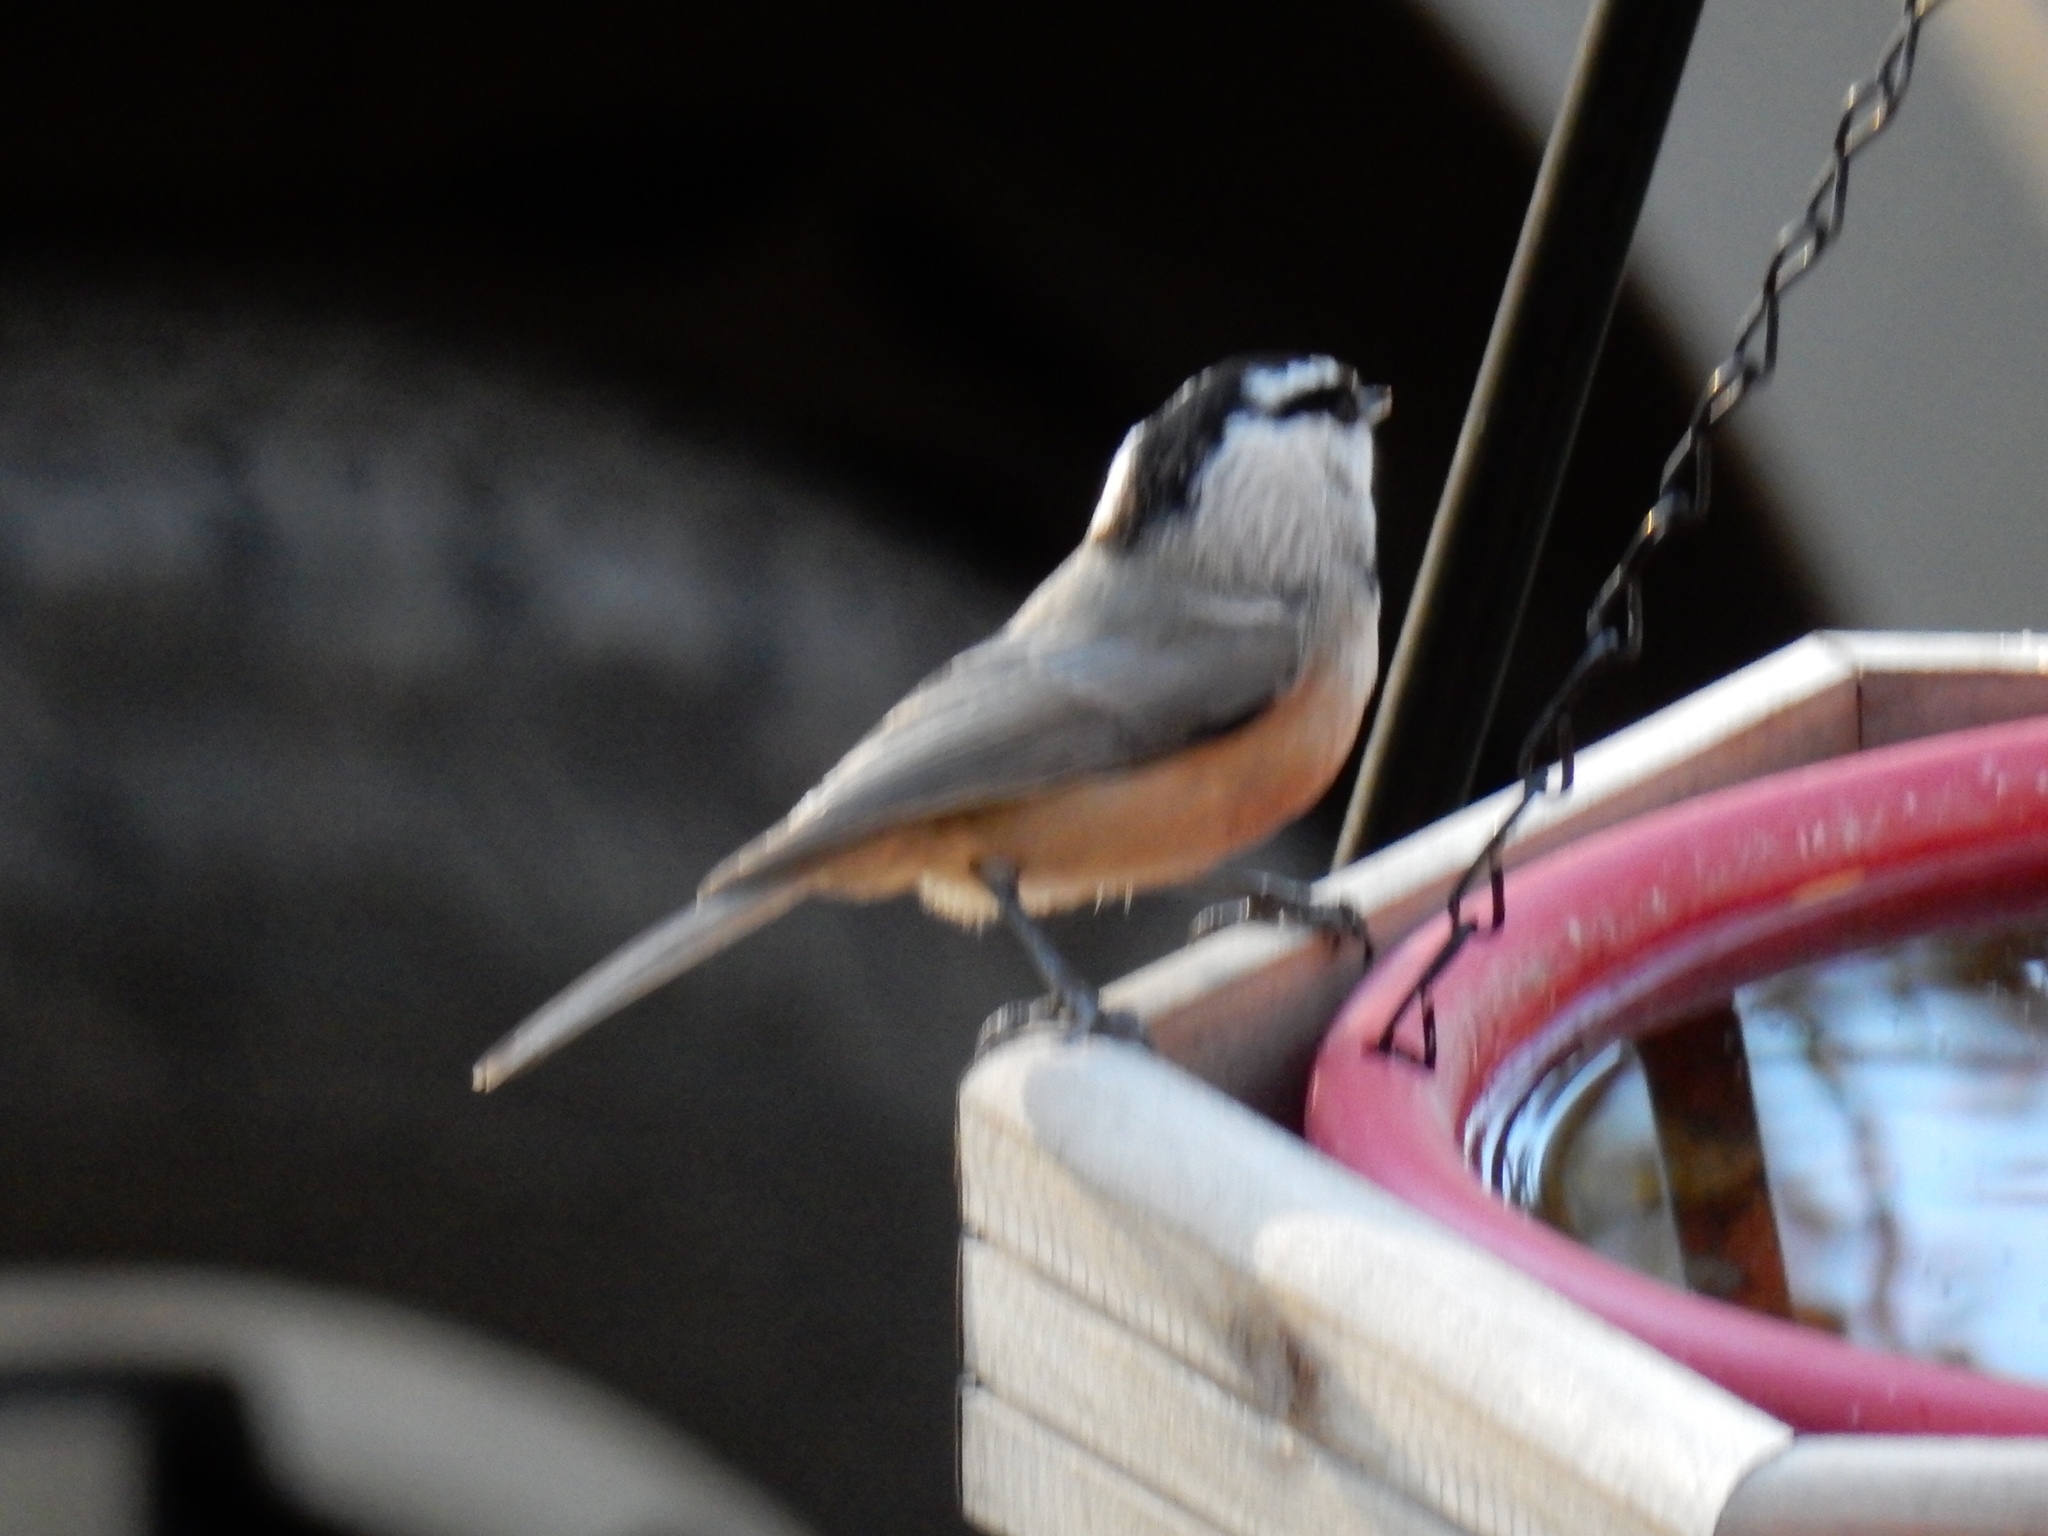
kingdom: Animalia
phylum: Chordata
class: Aves
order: Passeriformes
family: Paridae
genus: Poecile
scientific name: Poecile gambeli
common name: Mountain chickadee
